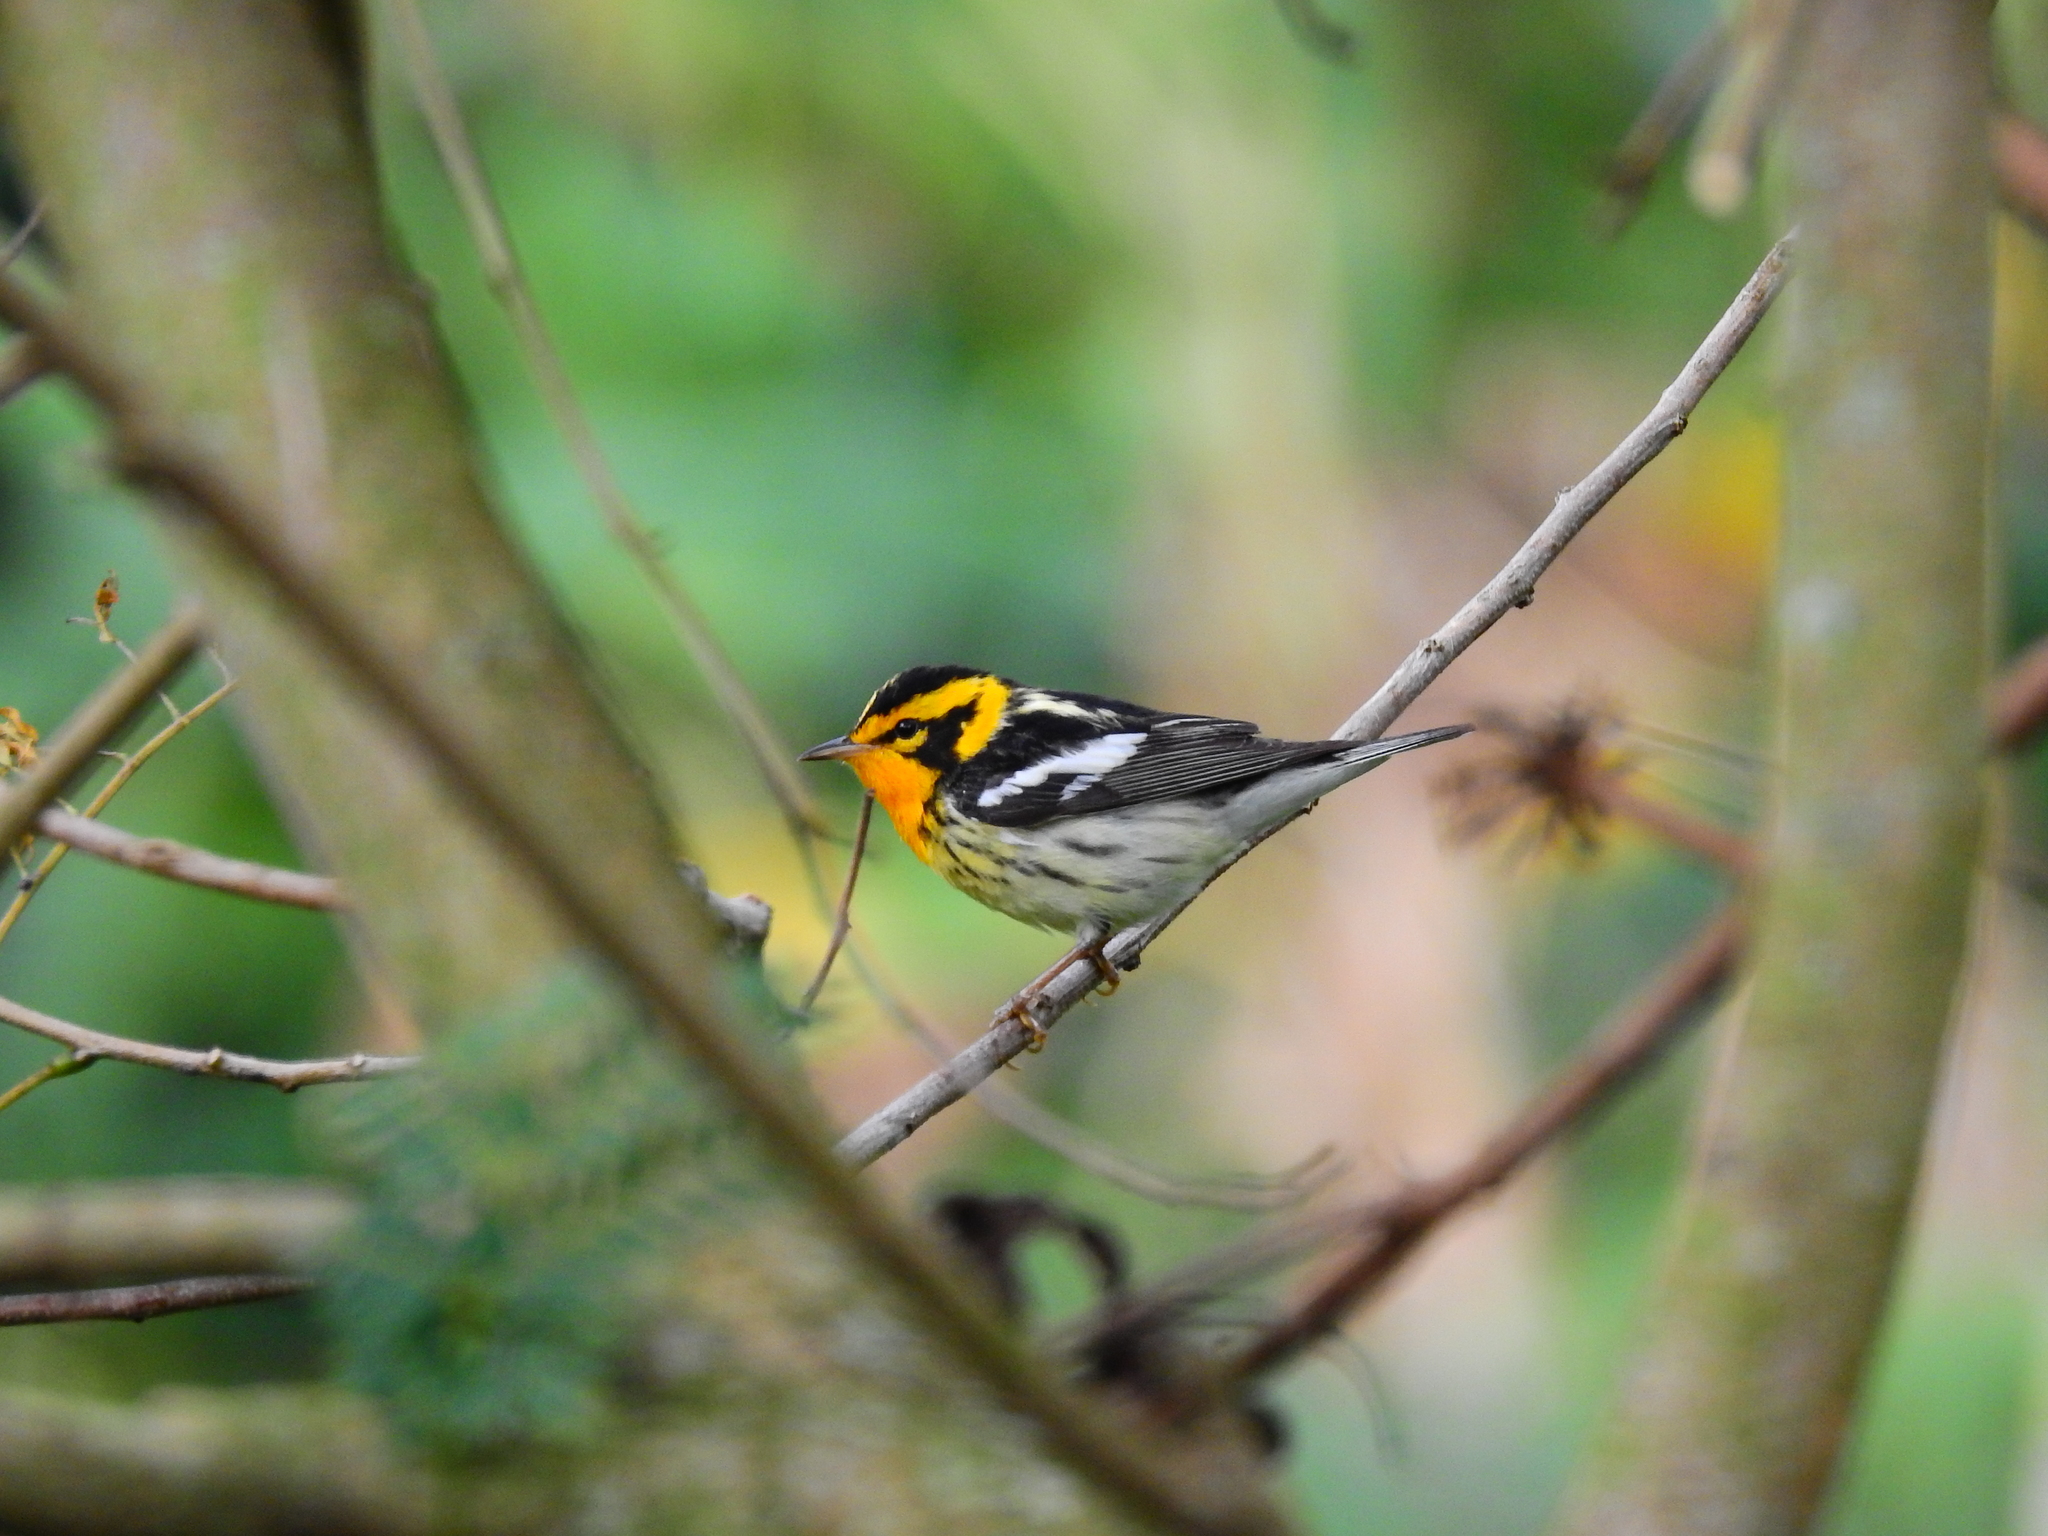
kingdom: Animalia
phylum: Chordata
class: Aves
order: Passeriformes
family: Parulidae
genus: Setophaga
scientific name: Setophaga fusca
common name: Blackburnian warbler
